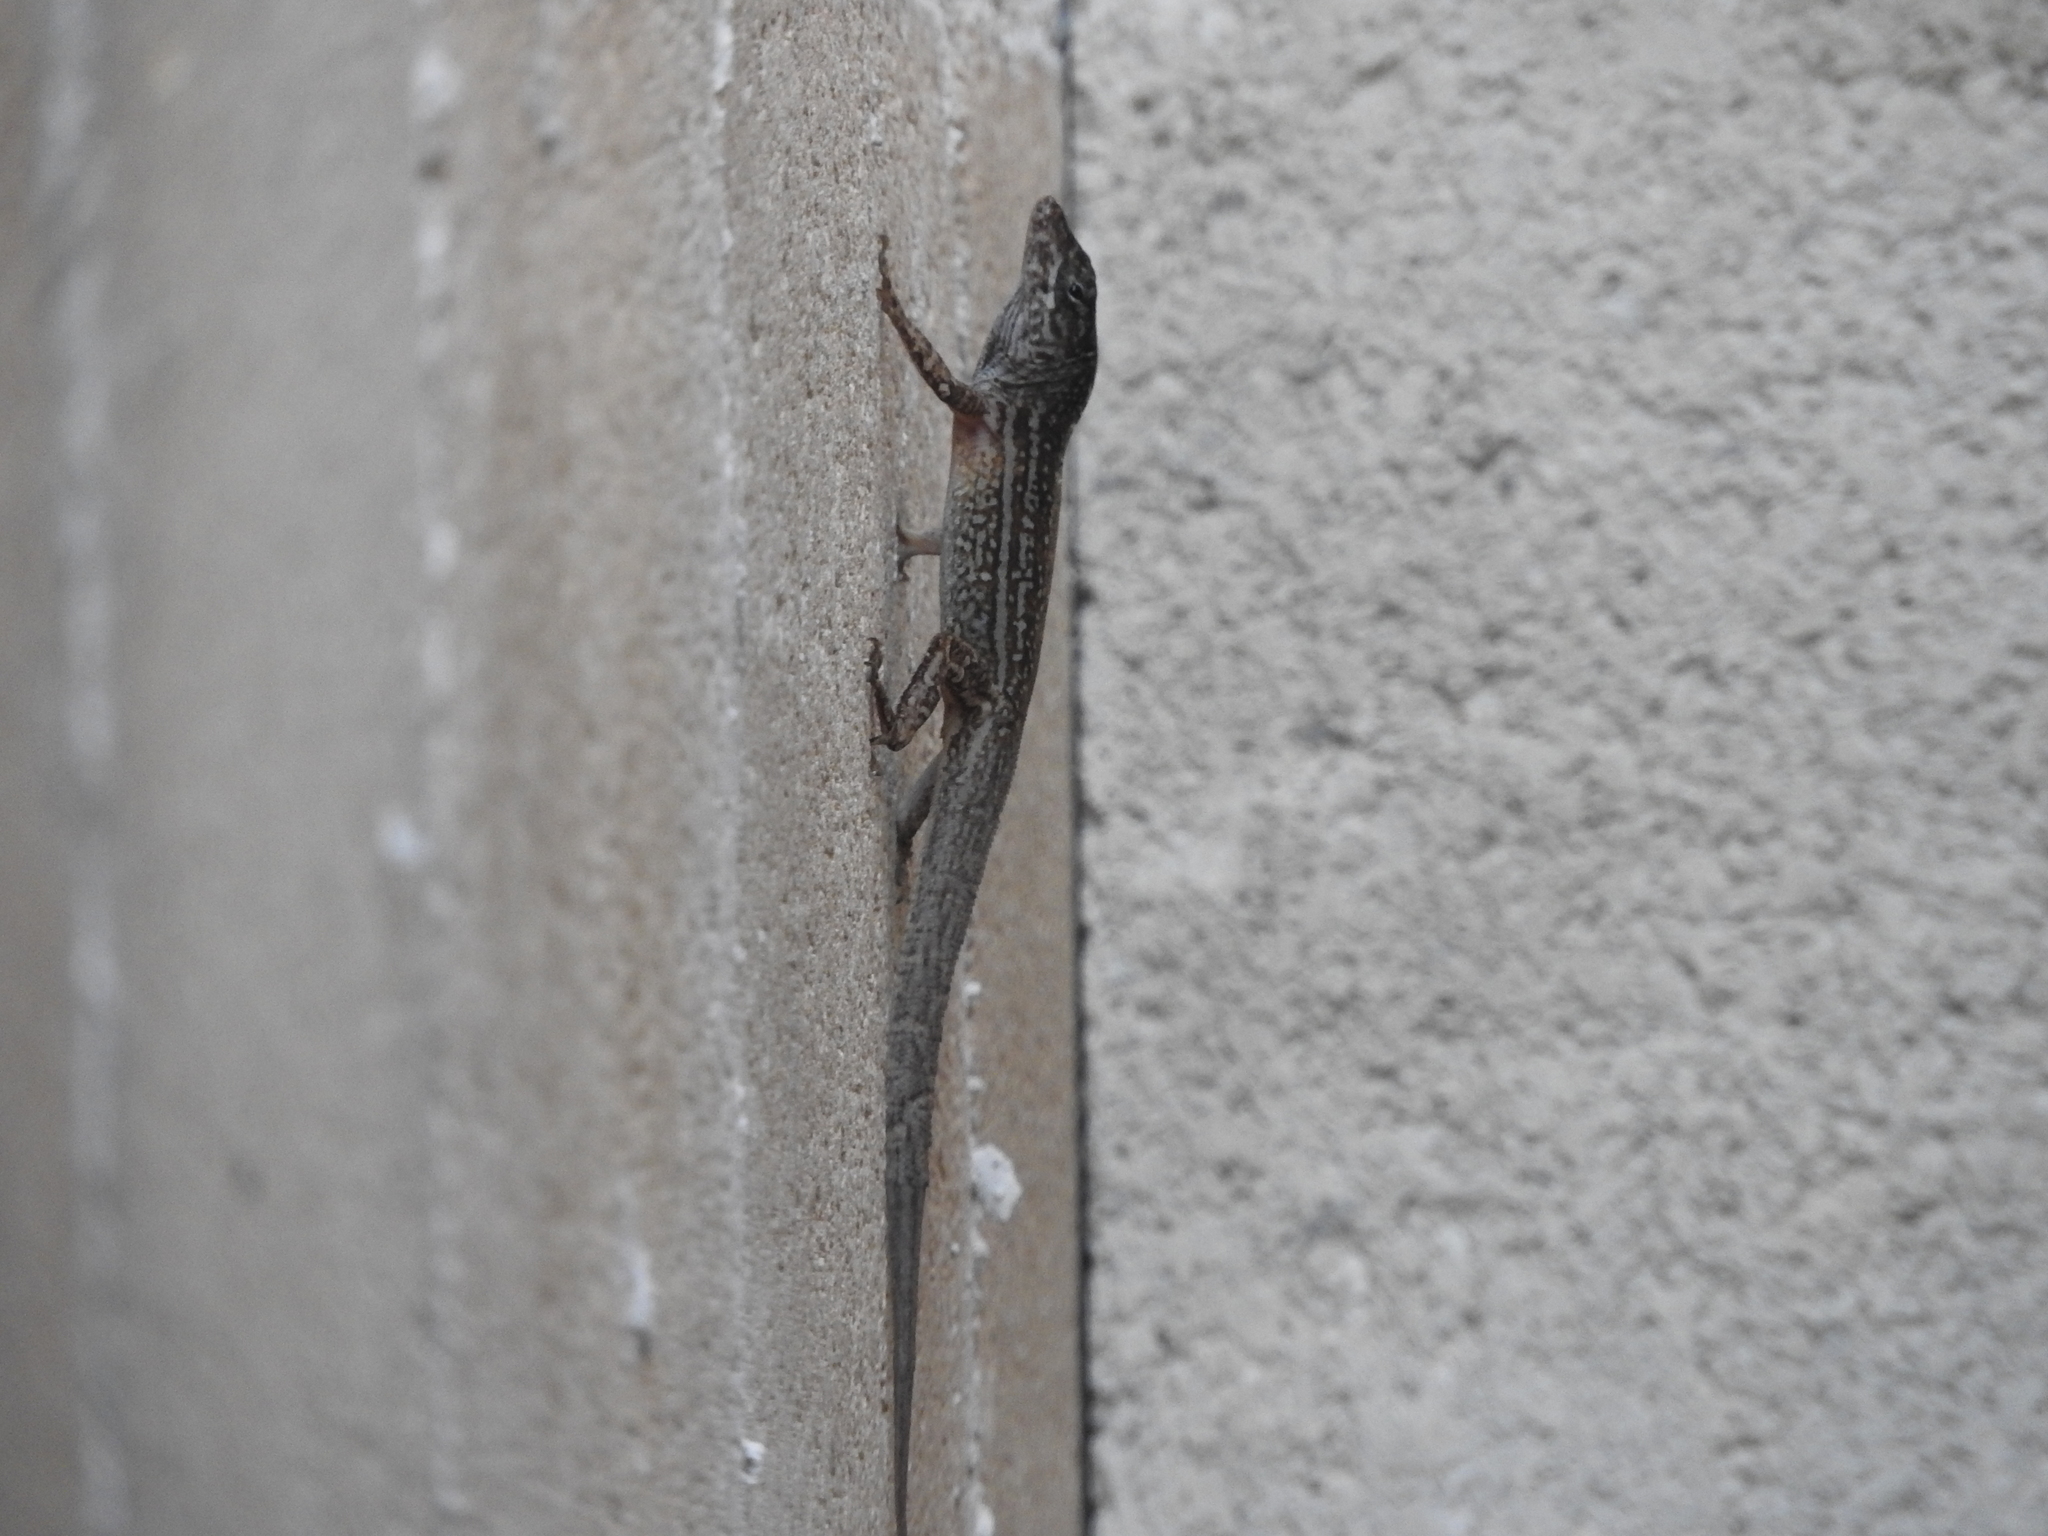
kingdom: Animalia
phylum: Chordata
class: Squamata
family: Dactyloidae
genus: Anolis
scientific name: Anolis sagrei
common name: Brown anole
